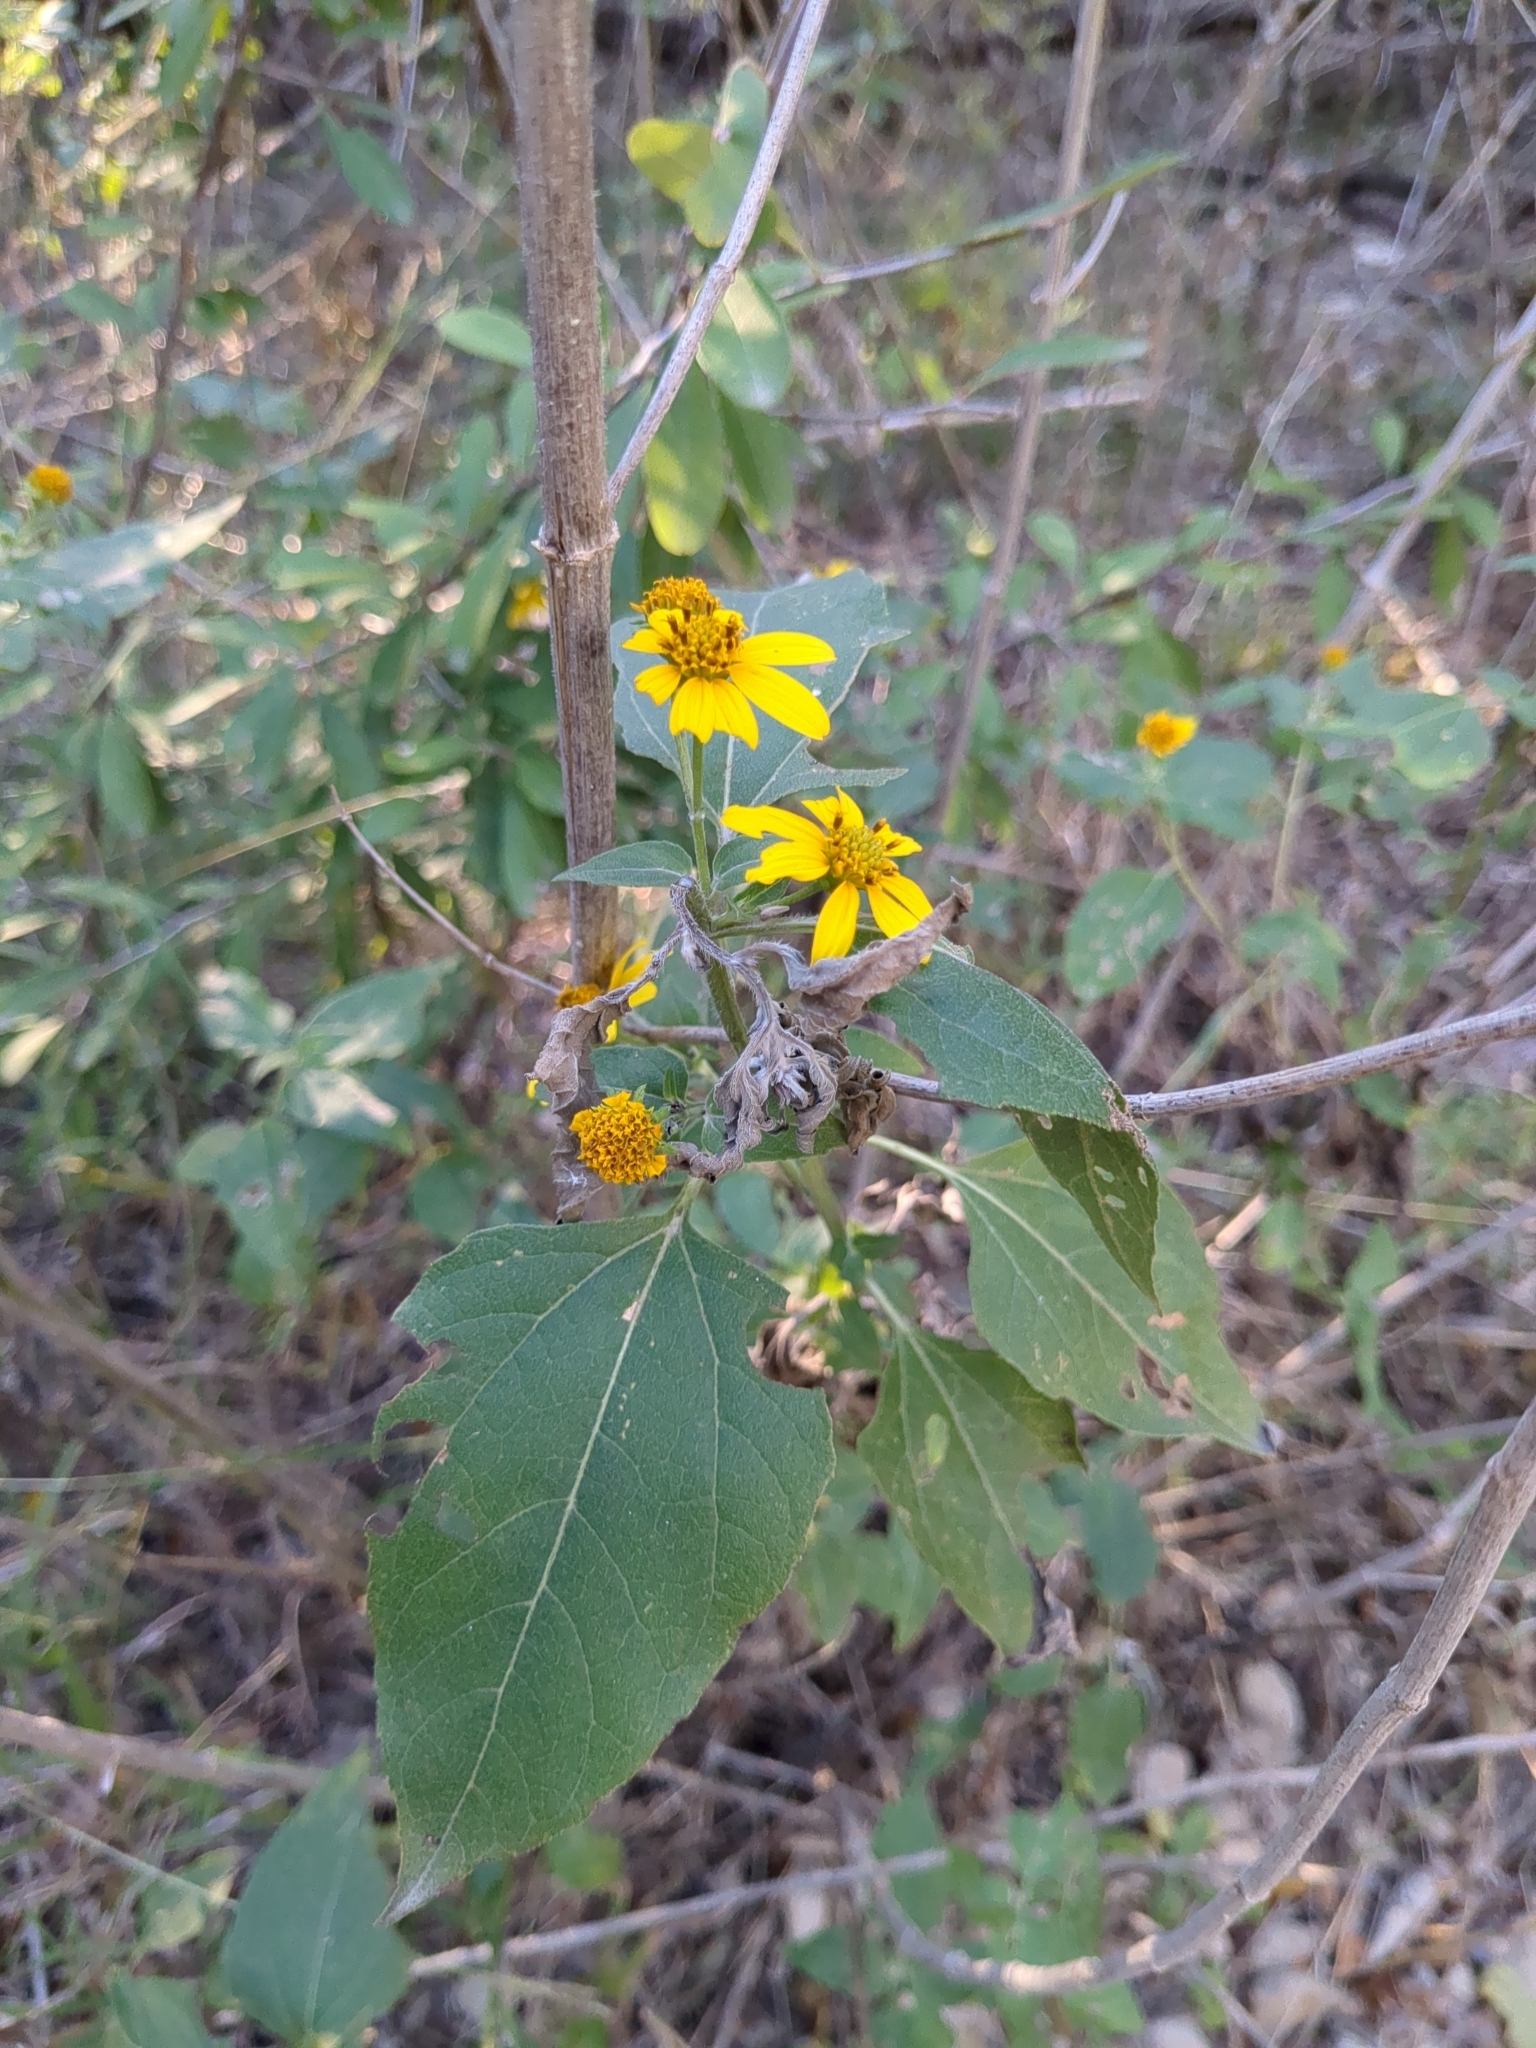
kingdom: Plantae
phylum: Tracheophyta
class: Magnoliopsida
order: Asterales
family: Asteraceae
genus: Viguiera
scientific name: Viguiera dentata
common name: Toothleaf
